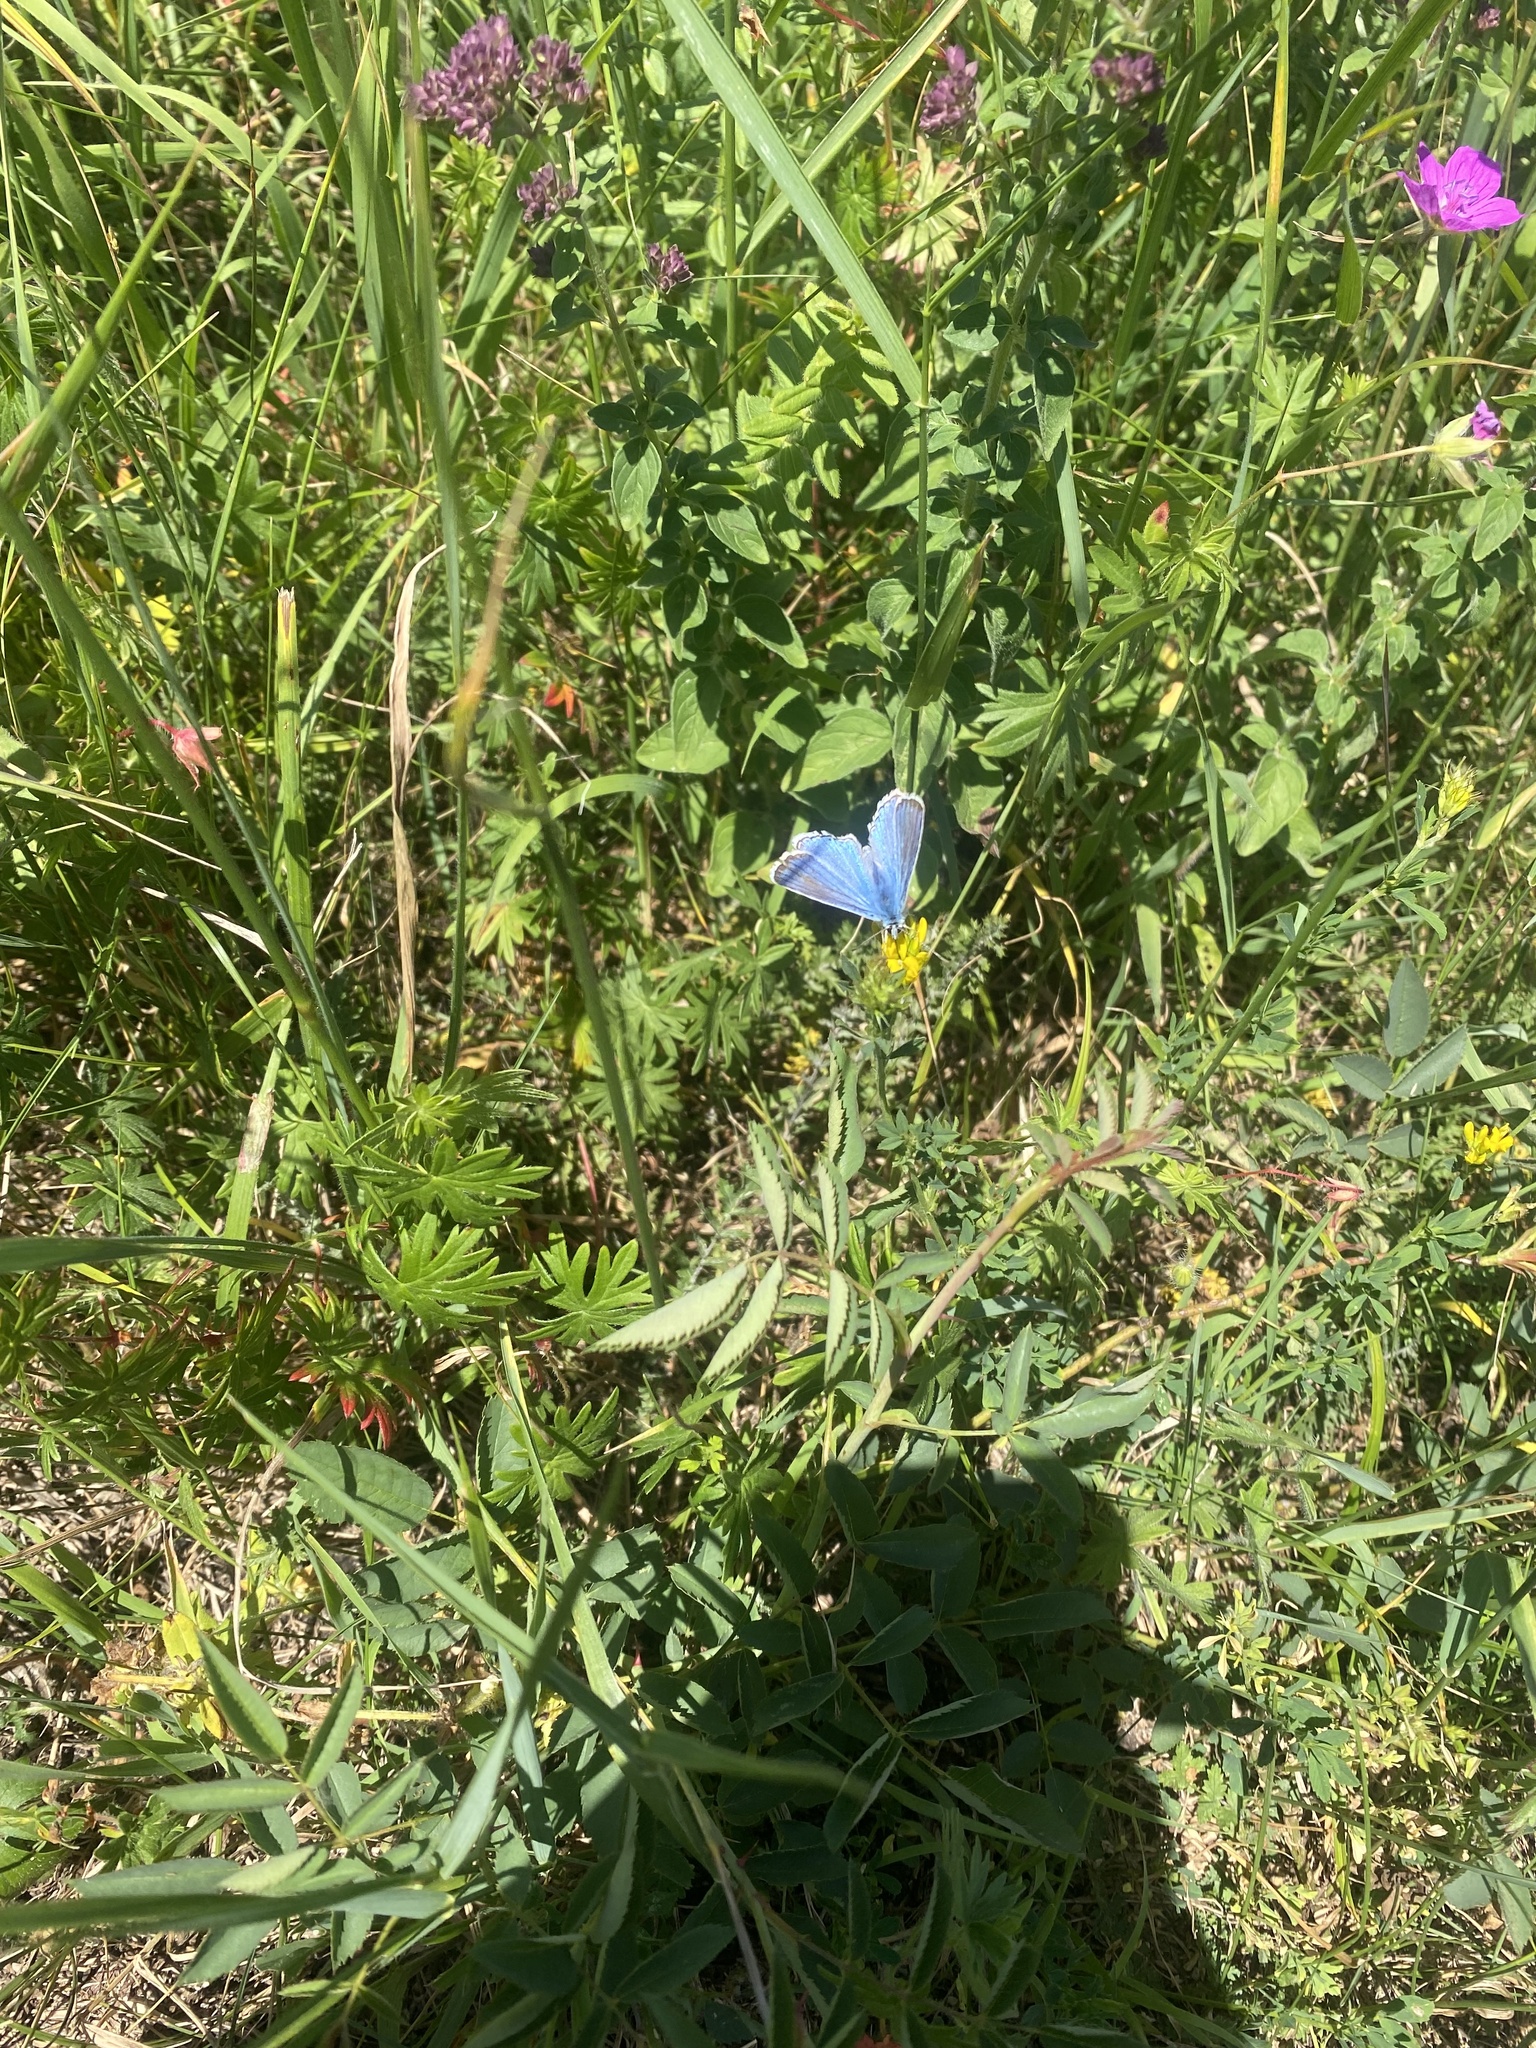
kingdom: Animalia
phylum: Arthropoda
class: Insecta
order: Lepidoptera
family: Lycaenidae
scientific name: Lycaenidae
